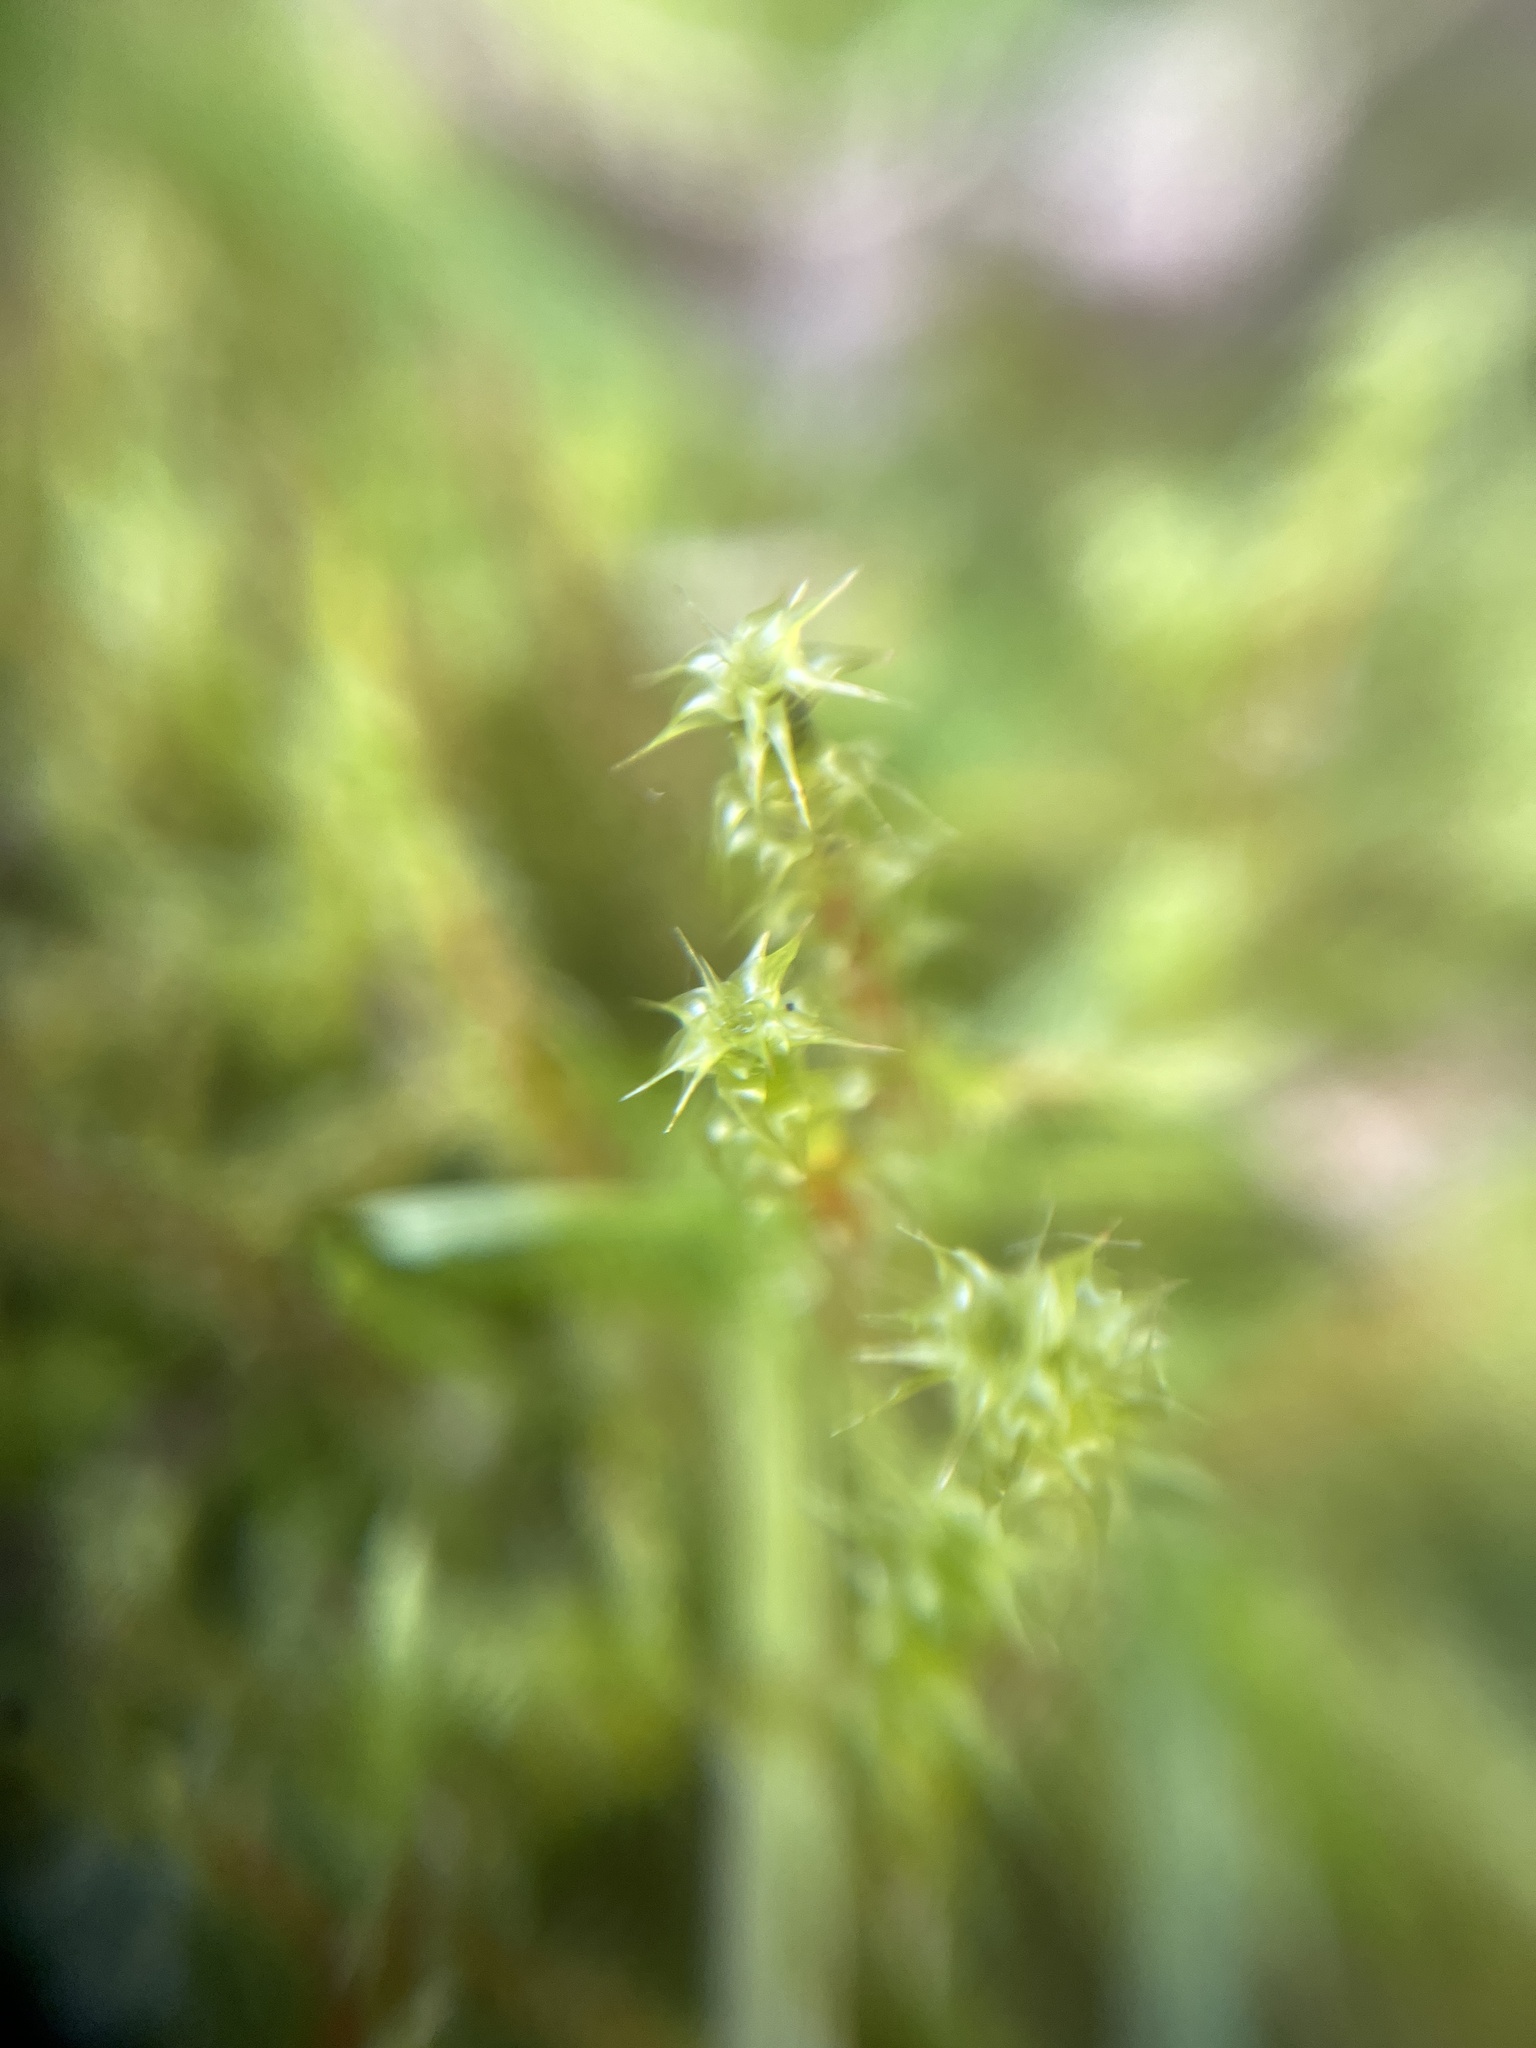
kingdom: Plantae
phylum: Bryophyta
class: Bryopsida
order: Hypnales
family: Hylocomiaceae
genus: Rhytidiadelphus
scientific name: Rhytidiadelphus squarrosus
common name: Springy turf-moss
